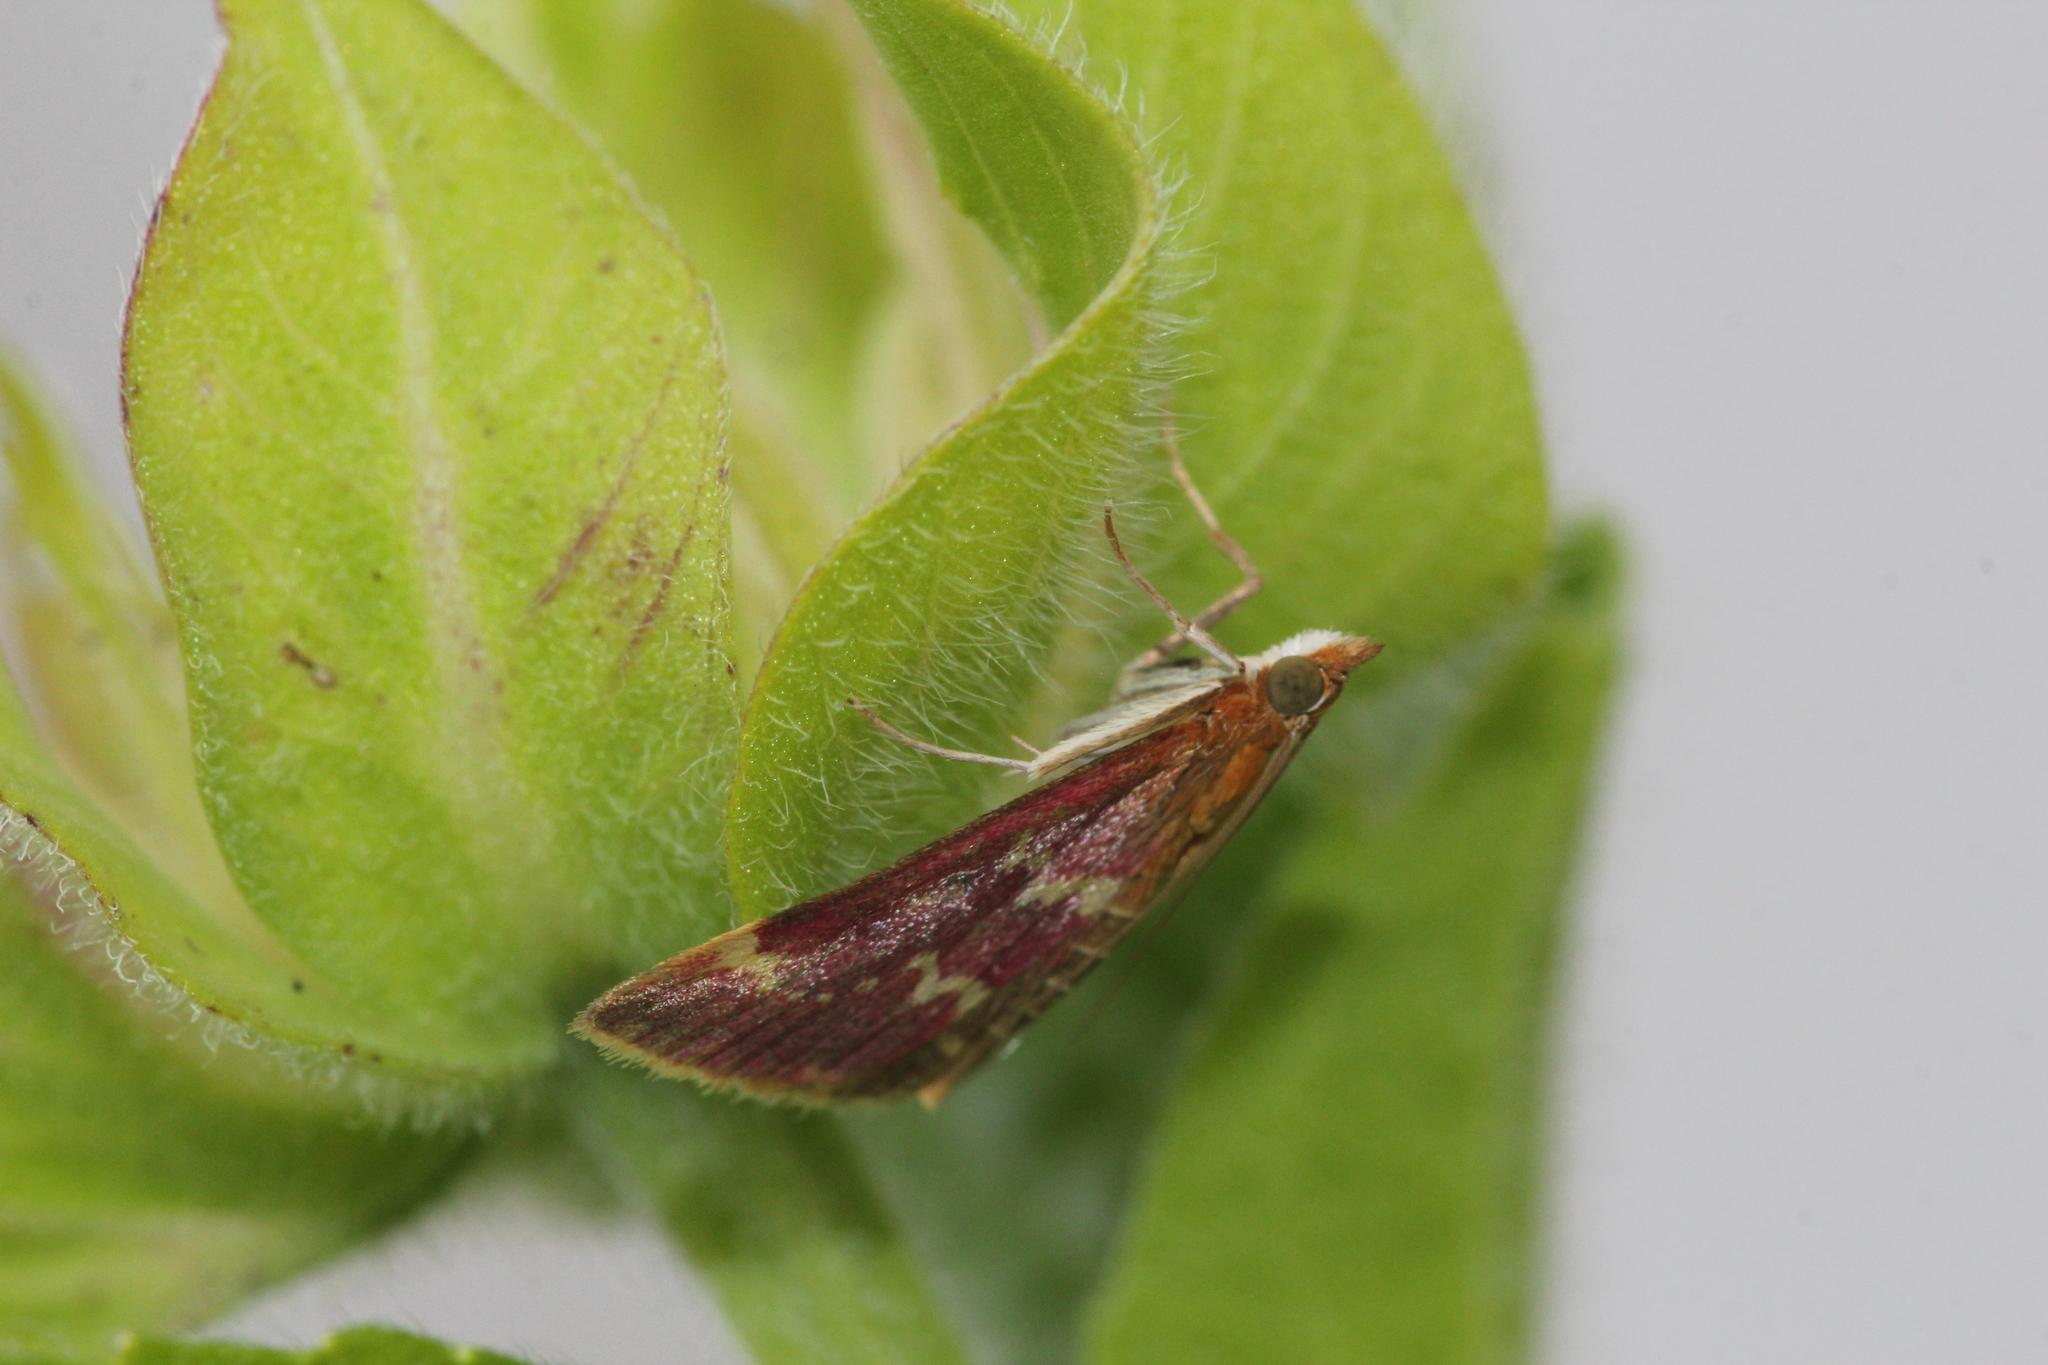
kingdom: Animalia
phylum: Arthropoda
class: Insecta
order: Lepidoptera
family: Crambidae
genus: Pyrausta
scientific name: Pyrausta signatalis
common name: Raspberry pyrausta moth
